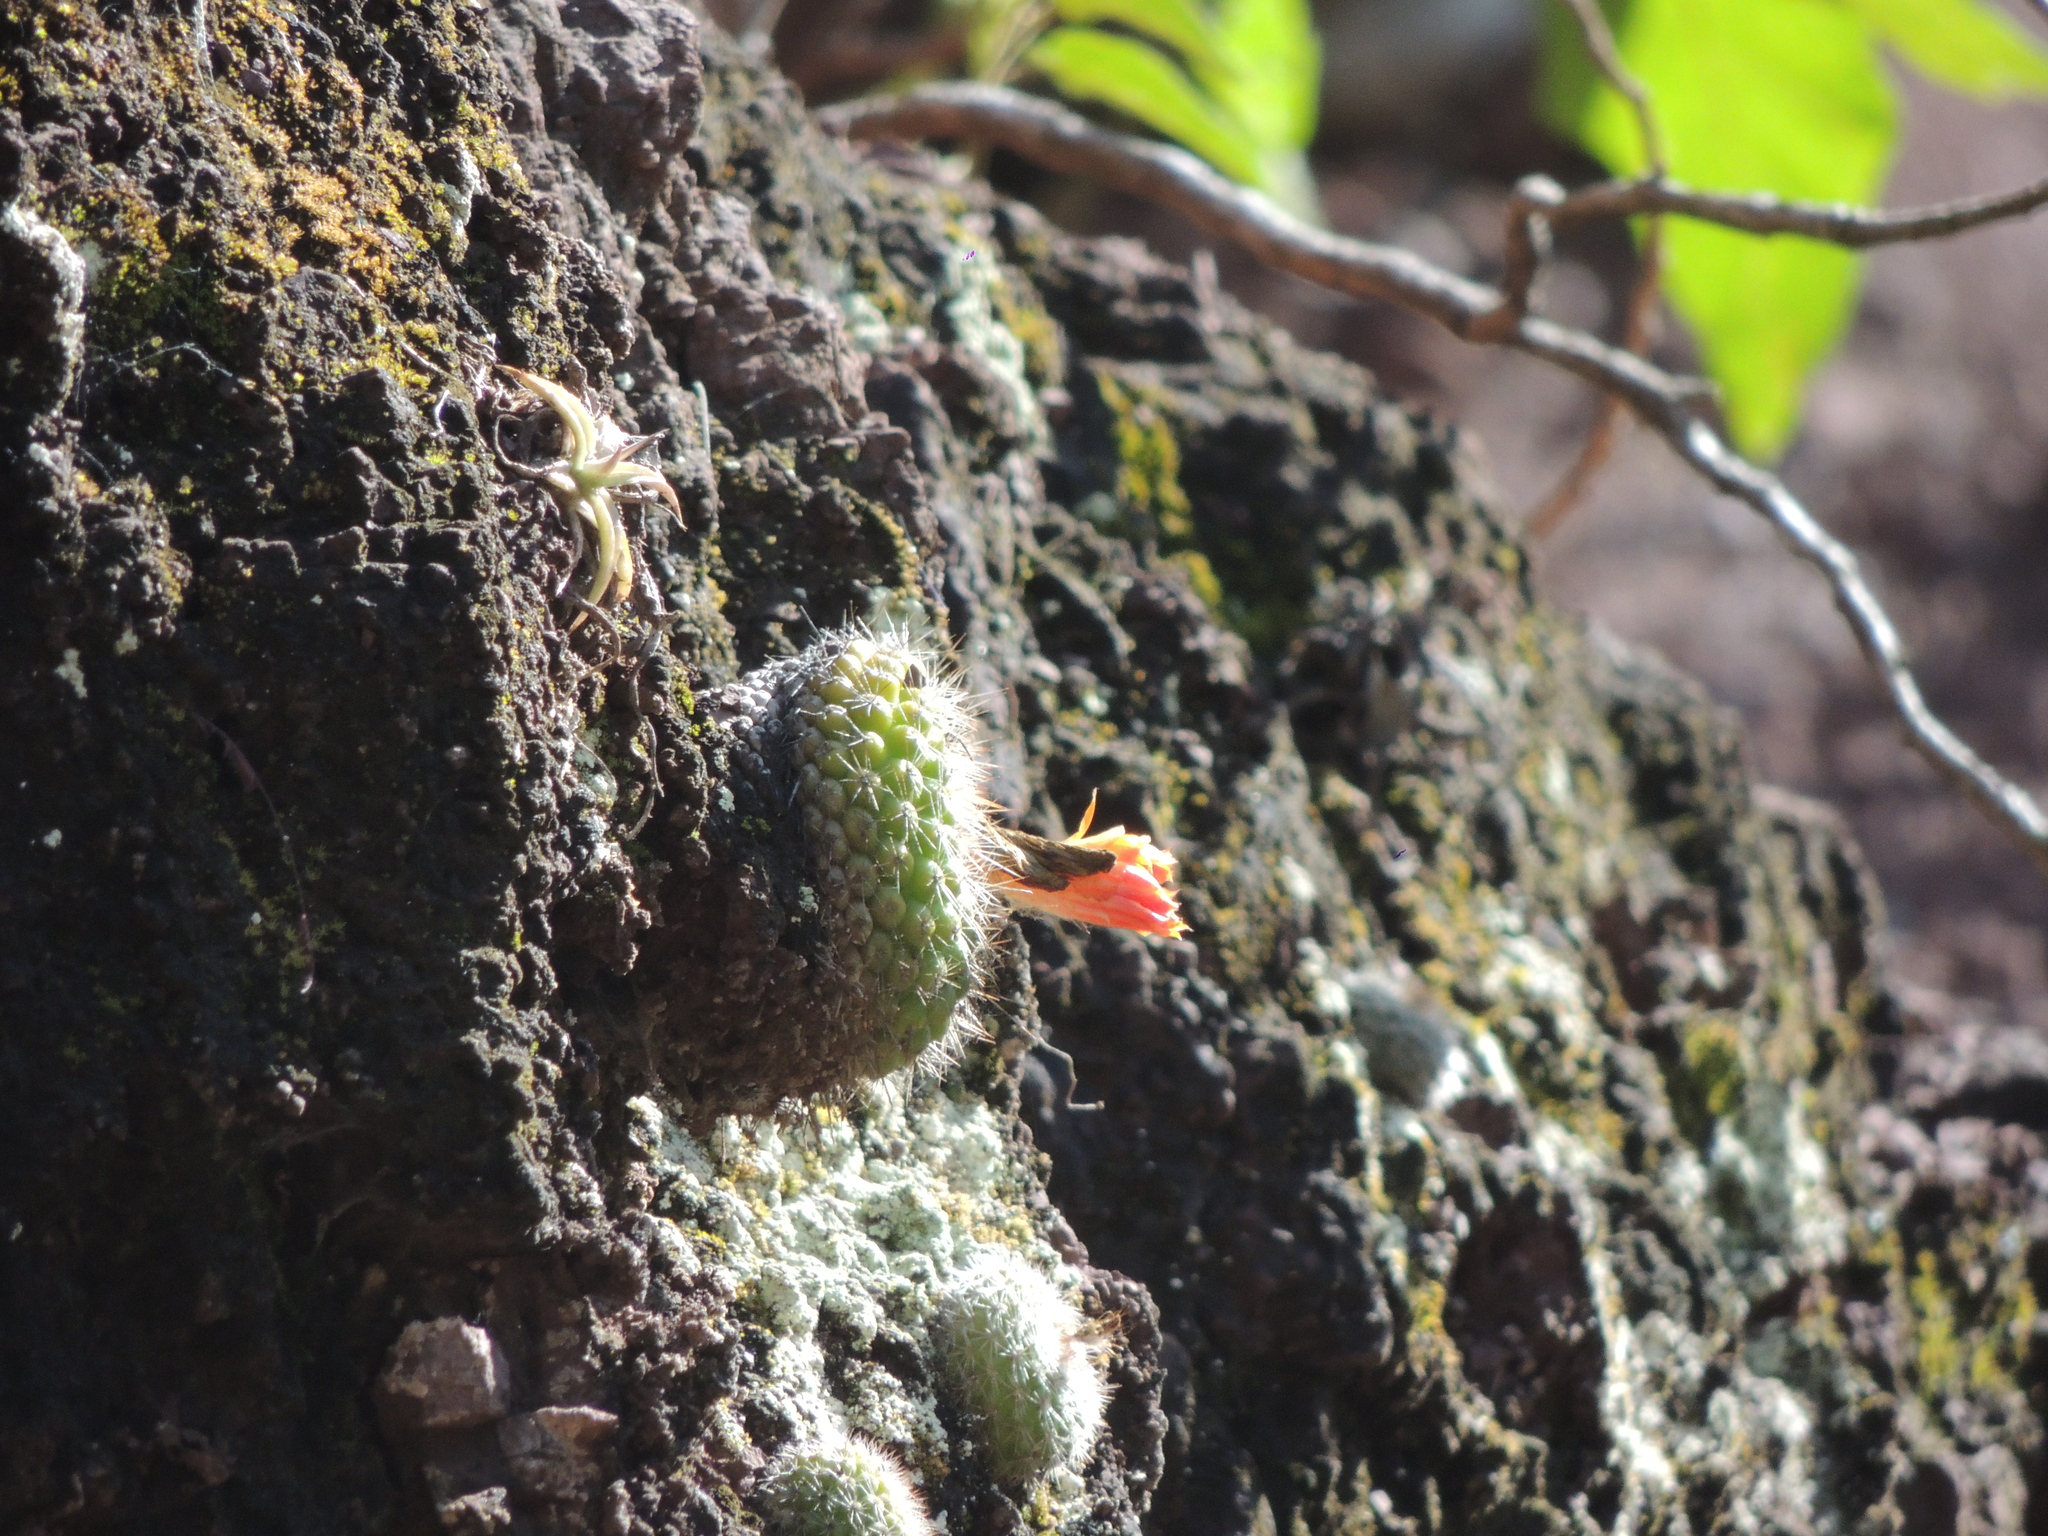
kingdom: Plantae
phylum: Tracheophyta
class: Magnoliopsida
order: Caryophyllales
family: Cactaceae
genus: Parodia
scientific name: Parodia formosa
